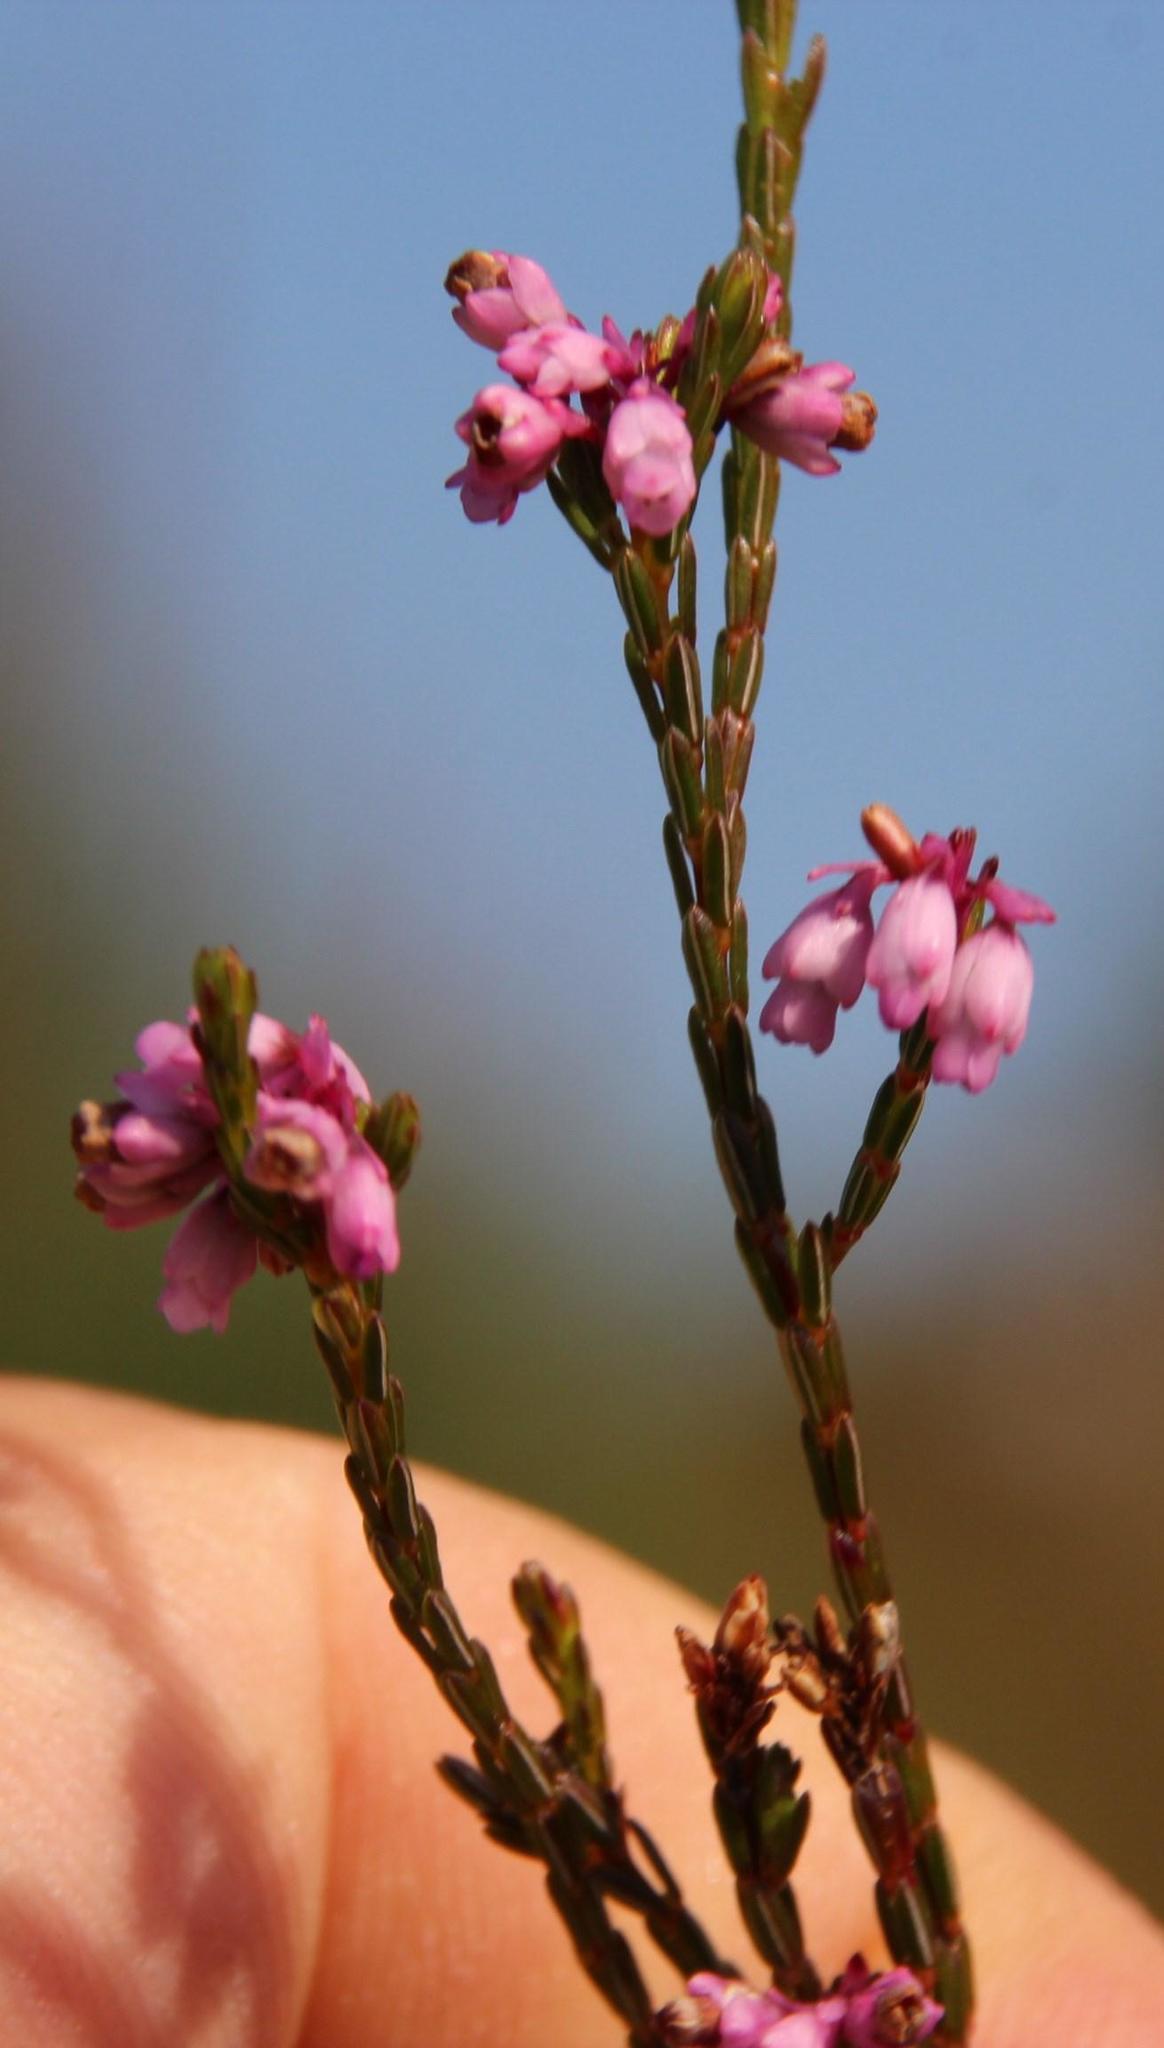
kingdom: Plantae
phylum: Tracheophyta
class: Magnoliopsida
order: Ericales
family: Ericaceae
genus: Erica
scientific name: Erica corifolia
